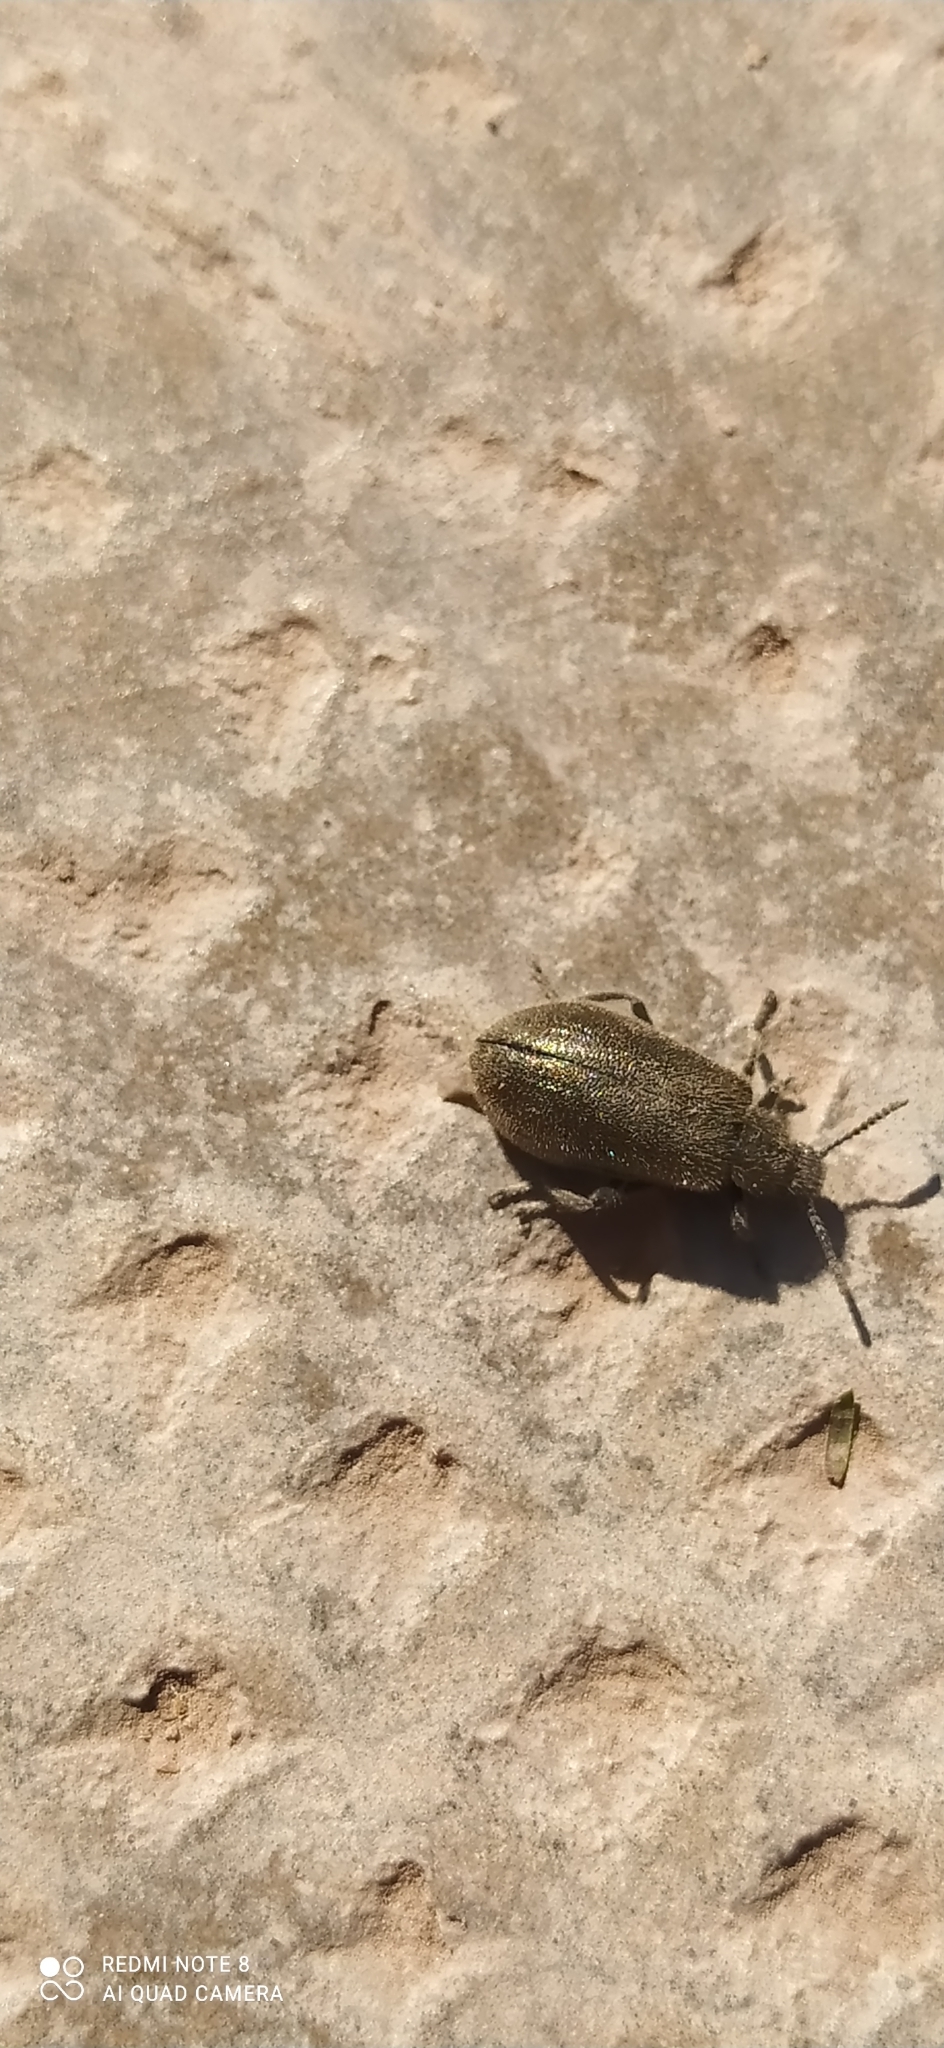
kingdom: Animalia
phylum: Arthropoda
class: Insecta
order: Coleoptera
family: Tenebrionidae
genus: Lagria
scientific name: Lagria villosa
